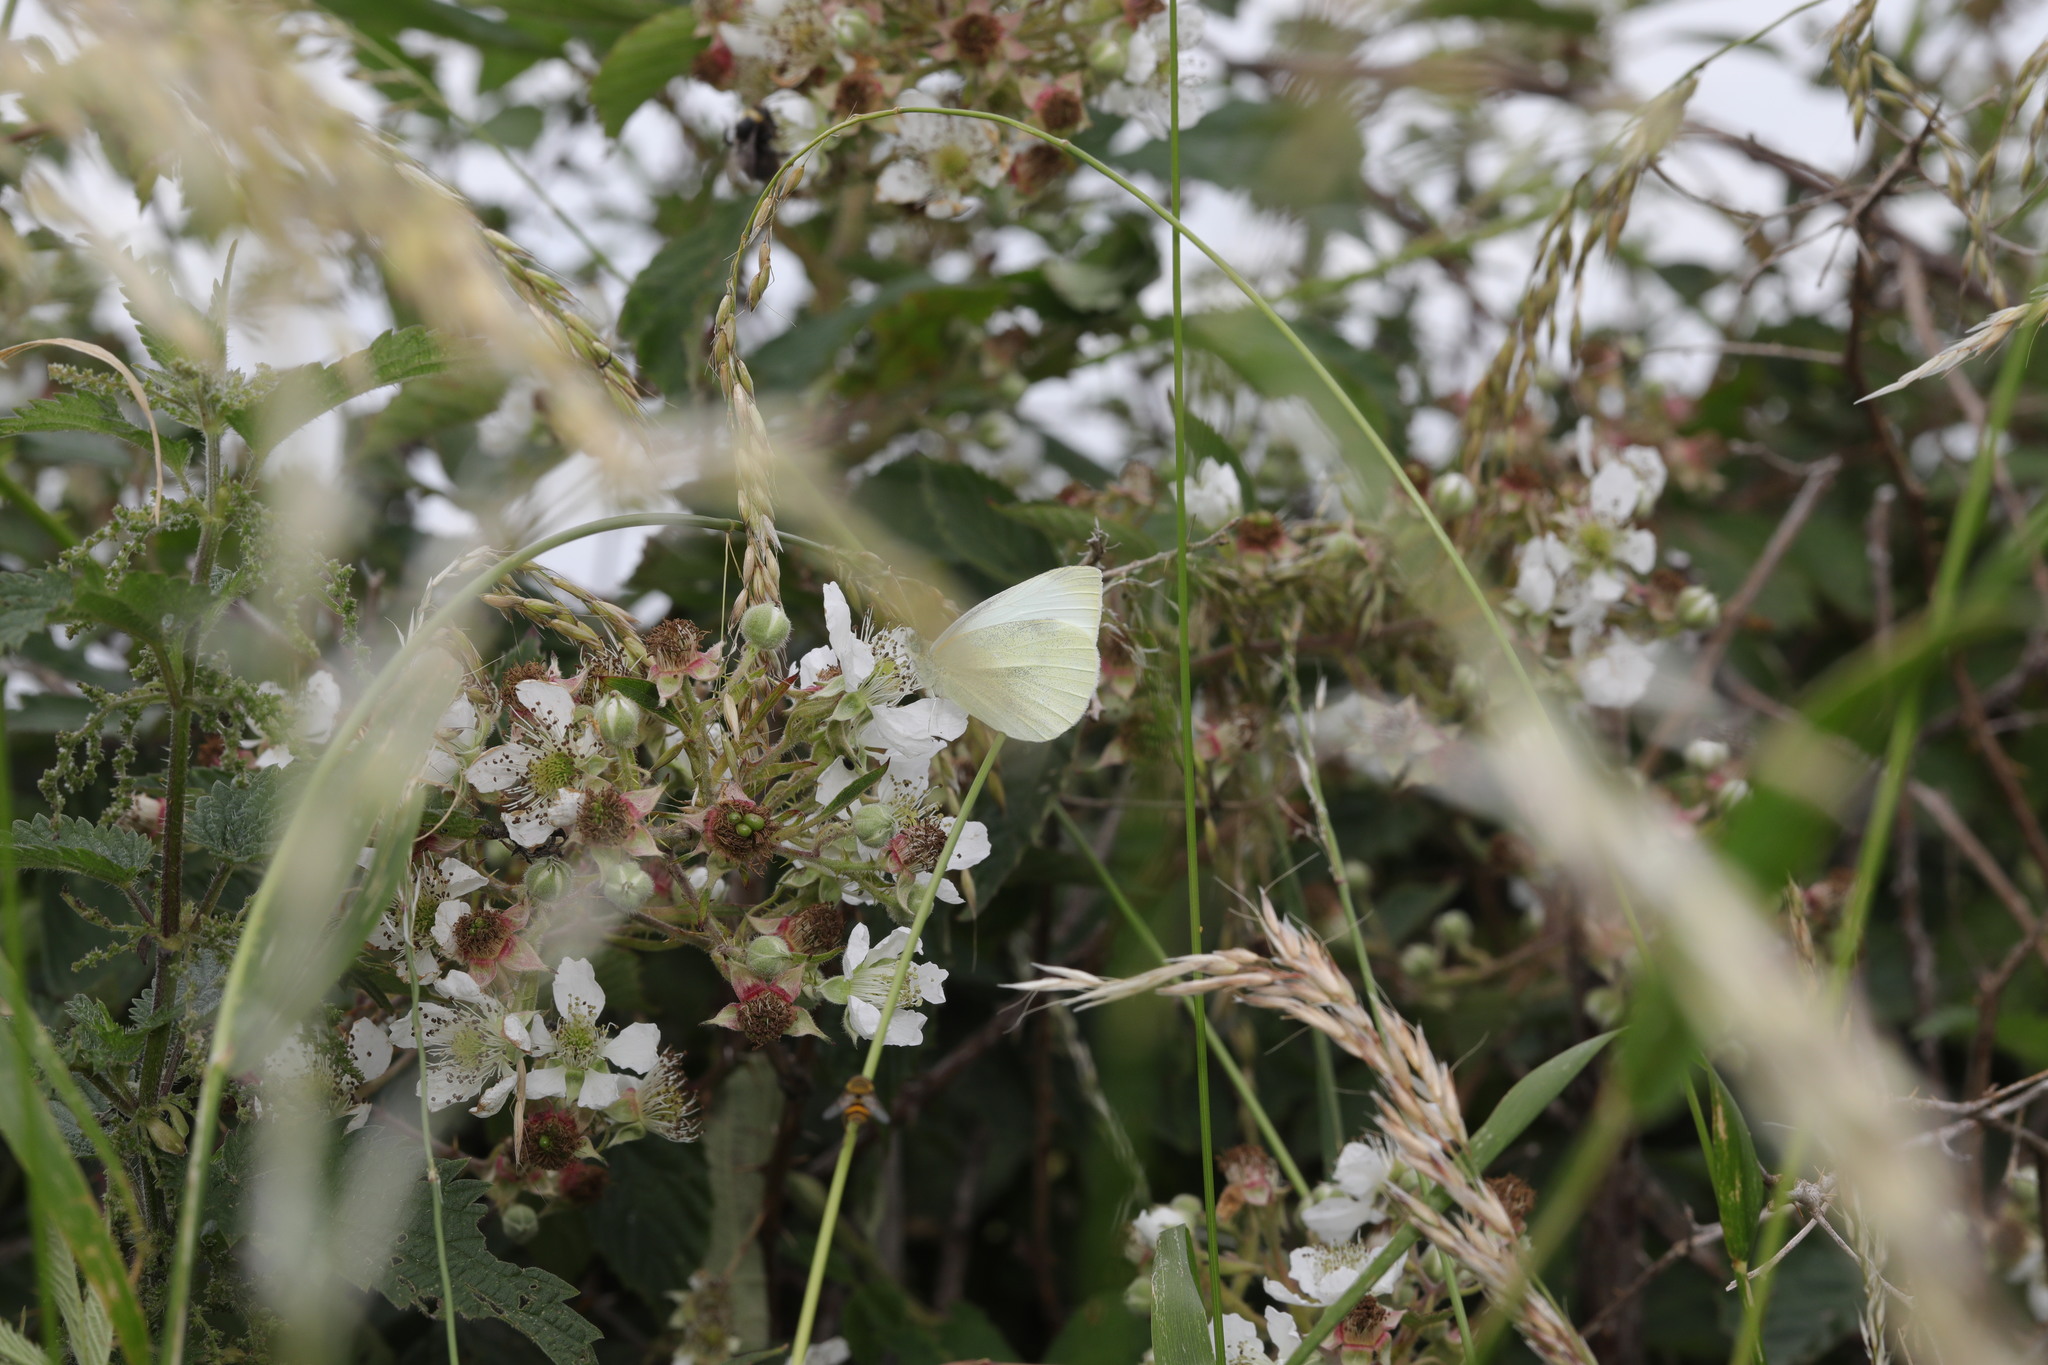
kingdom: Animalia
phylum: Arthropoda
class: Insecta
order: Lepidoptera
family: Pieridae
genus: Pieris
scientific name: Pieris rapae
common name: Small white
